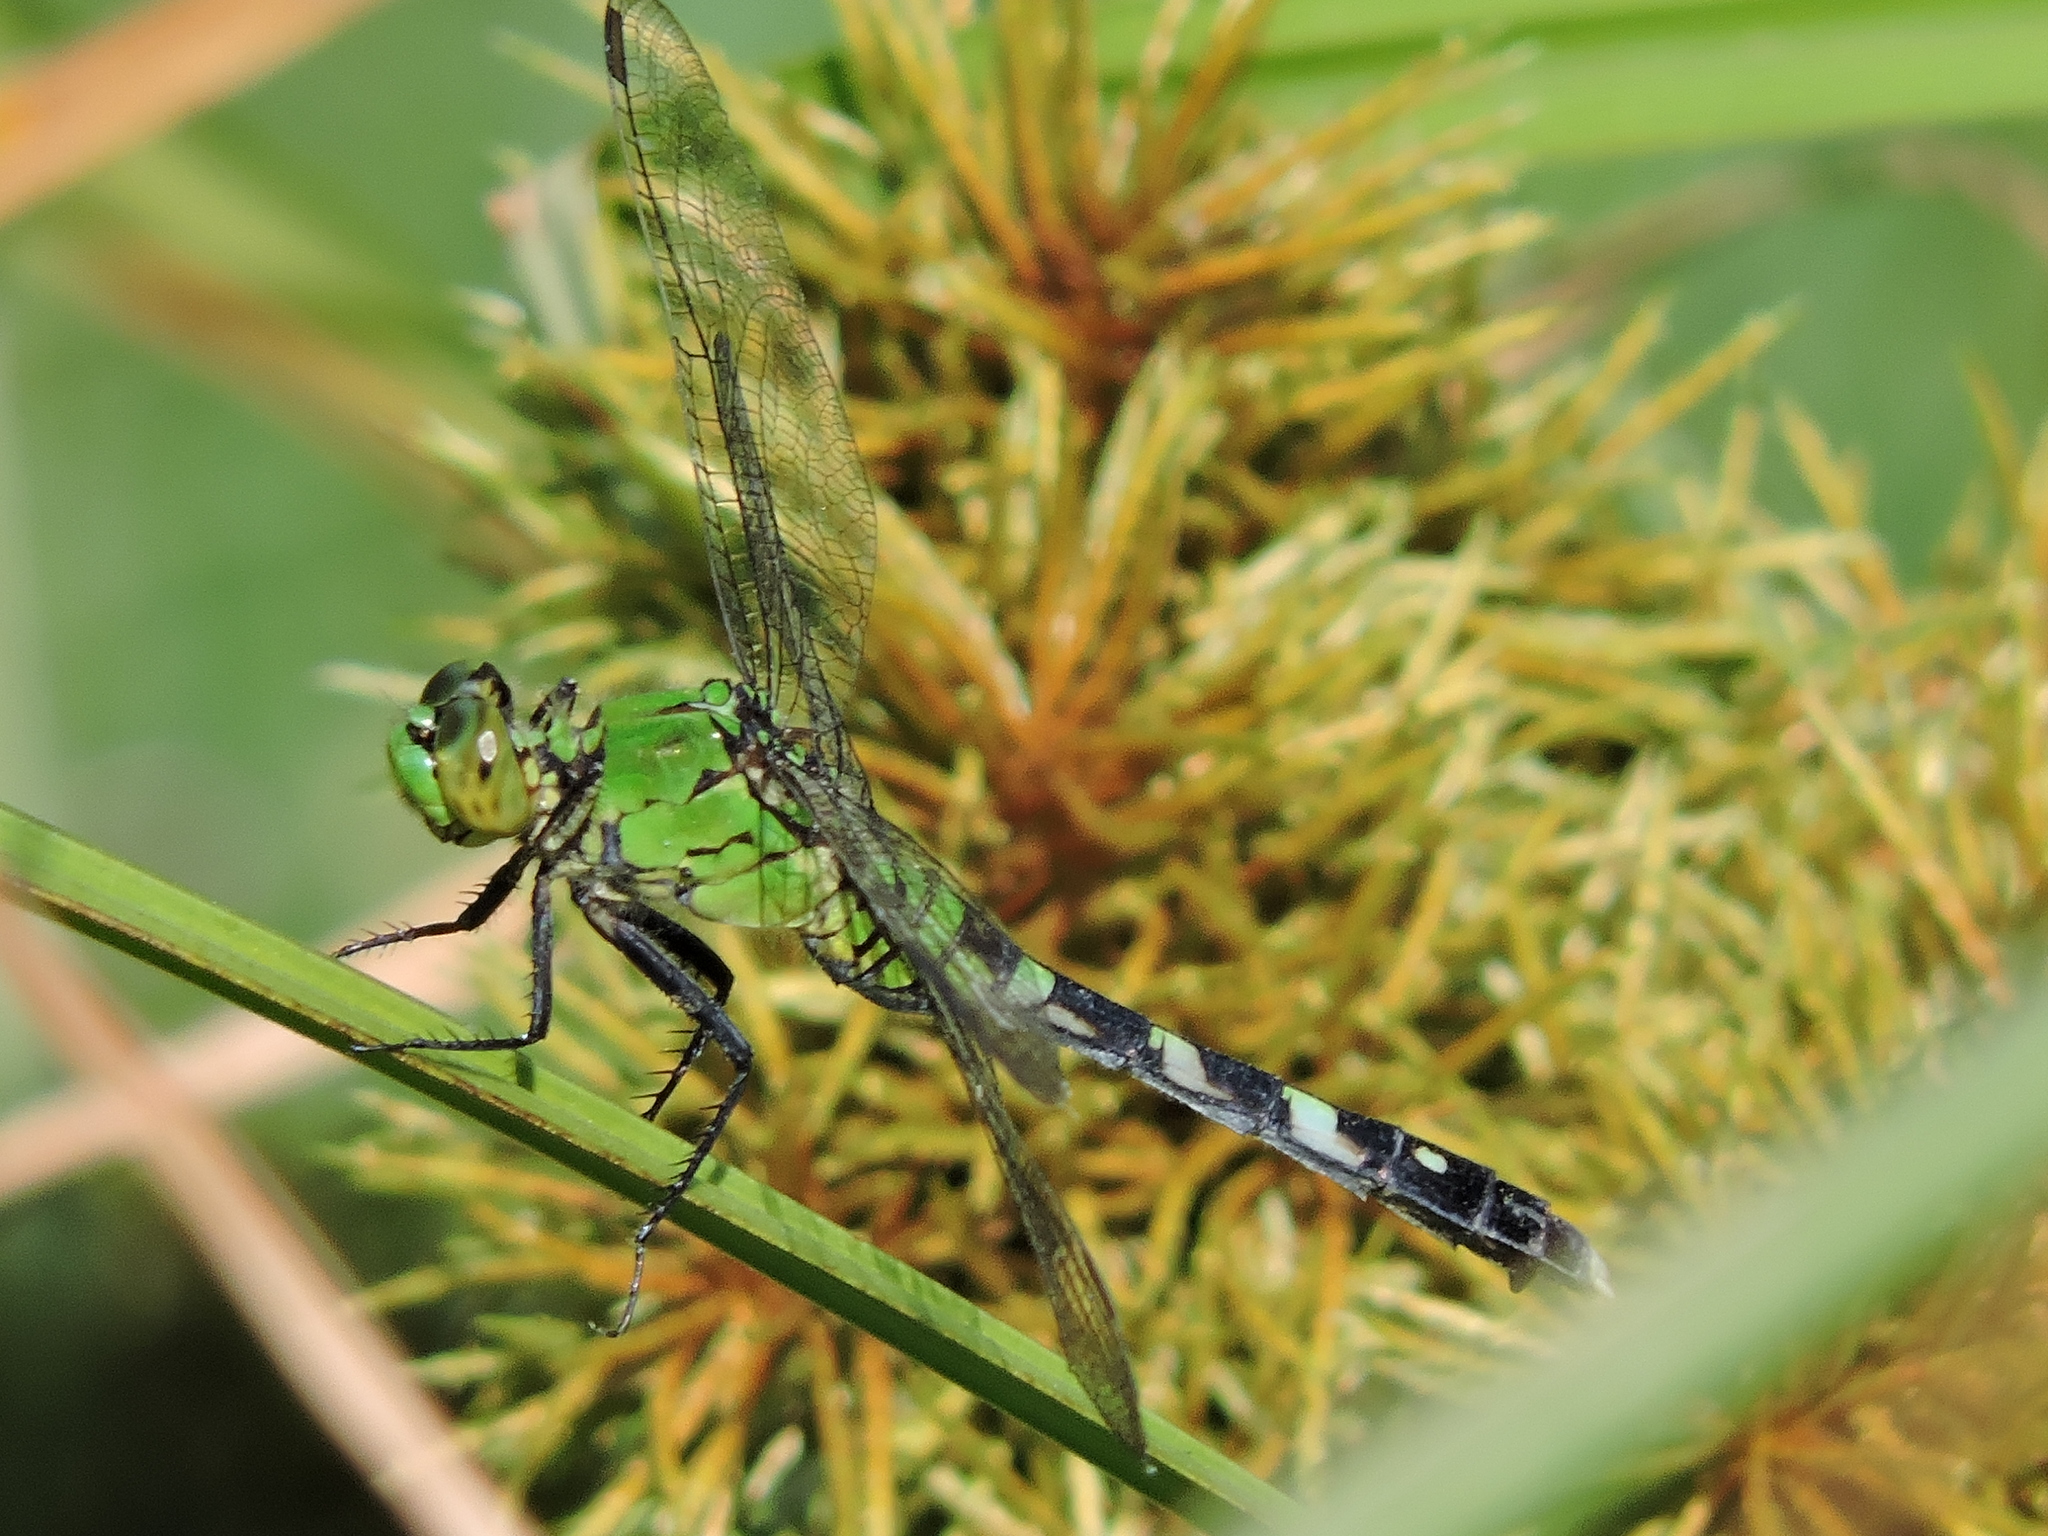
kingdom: Animalia
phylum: Arthropoda
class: Insecta
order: Odonata
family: Libellulidae
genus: Erythemis
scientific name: Erythemis simplicicollis
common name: Eastern pondhawk
